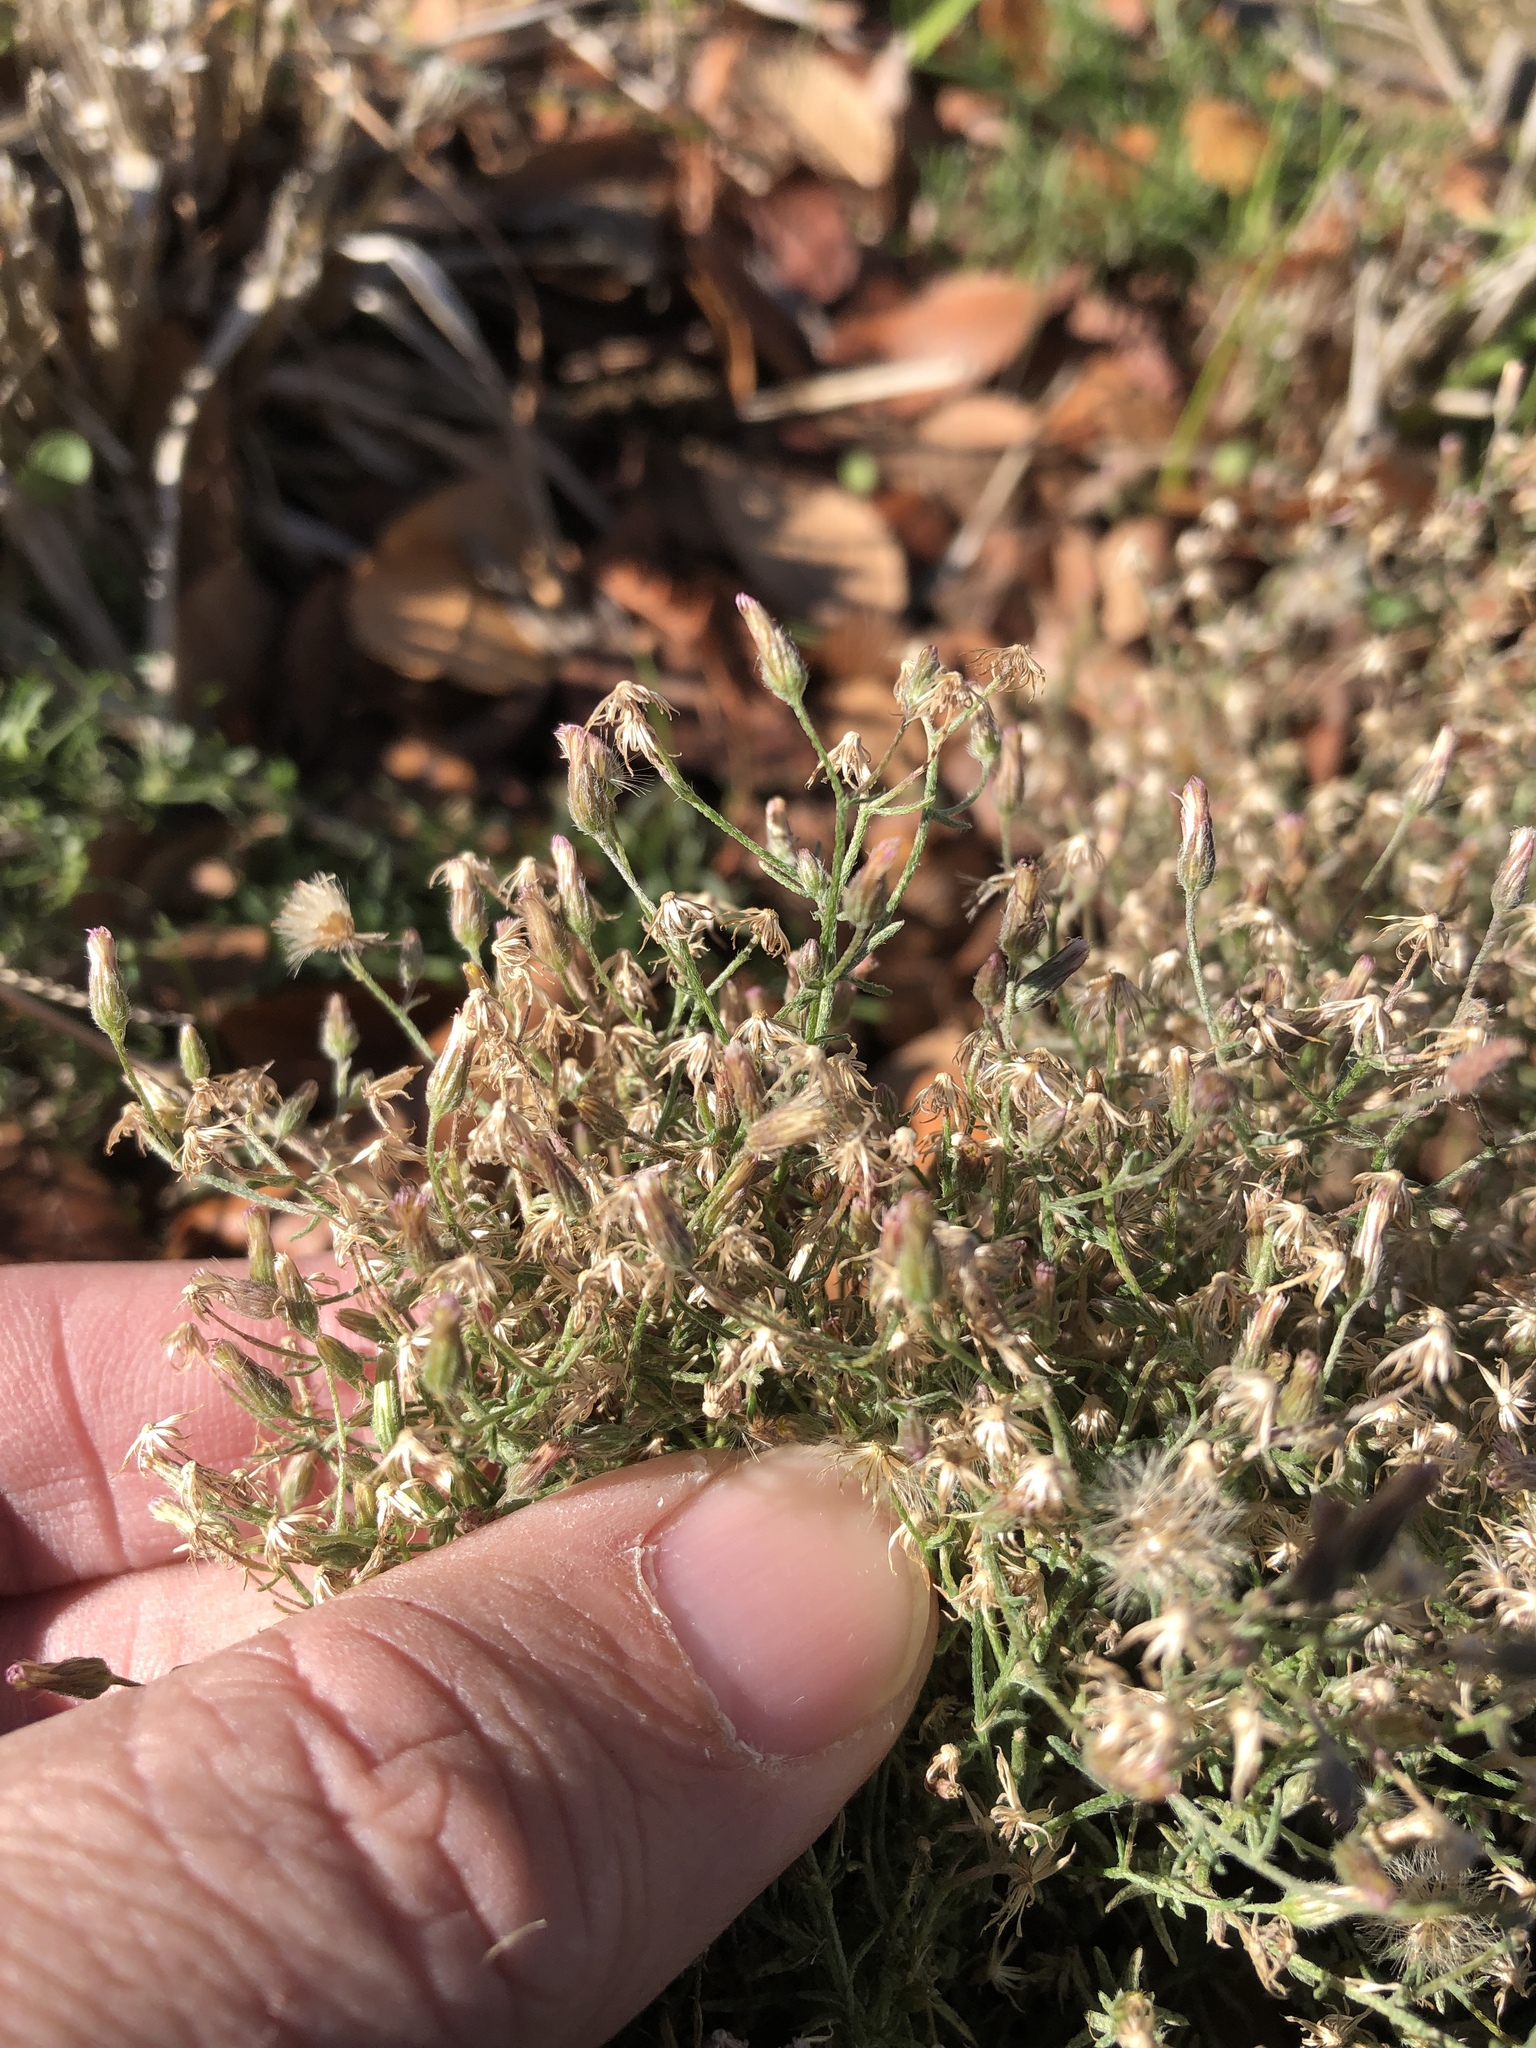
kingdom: Plantae
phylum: Tracheophyta
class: Magnoliopsida
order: Asterales
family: Asteraceae
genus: Erigeron
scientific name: Erigeron divaricatus
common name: Dwarf conyza
